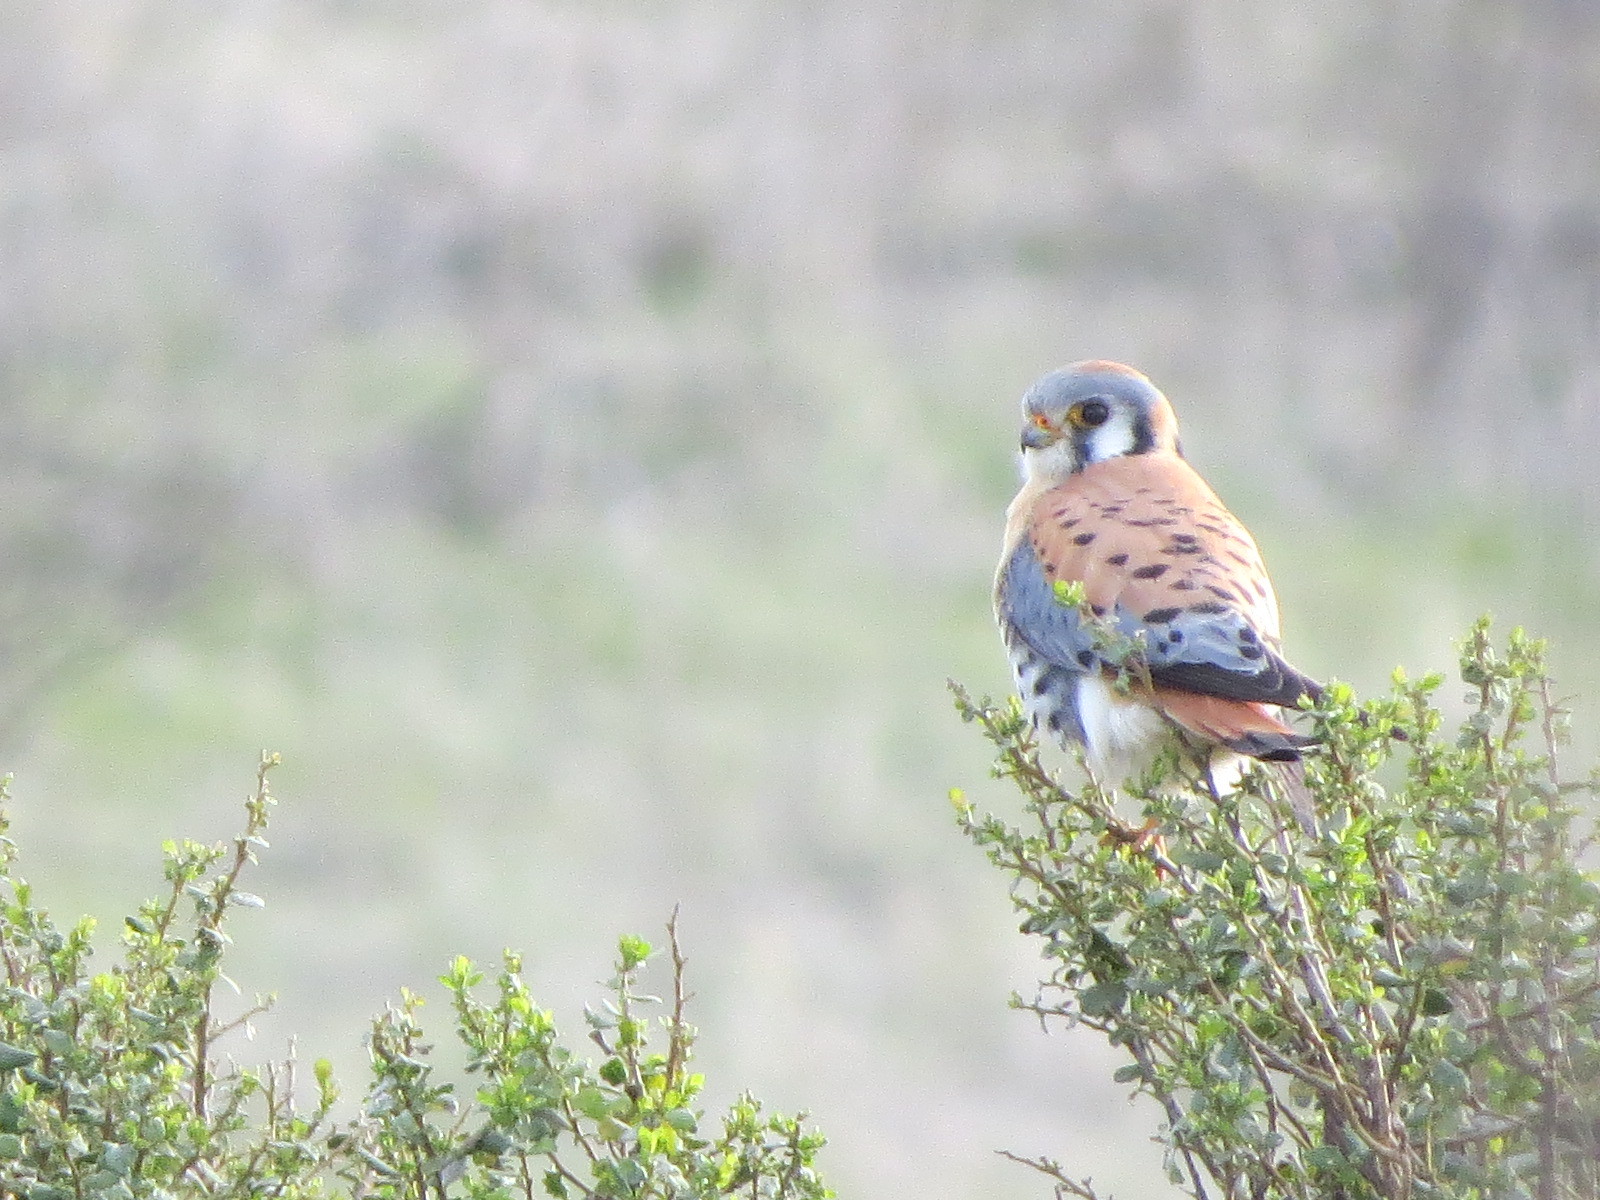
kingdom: Animalia
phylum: Chordata
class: Aves
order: Falconiformes
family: Falconidae
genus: Falco
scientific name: Falco sparverius
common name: American kestrel
